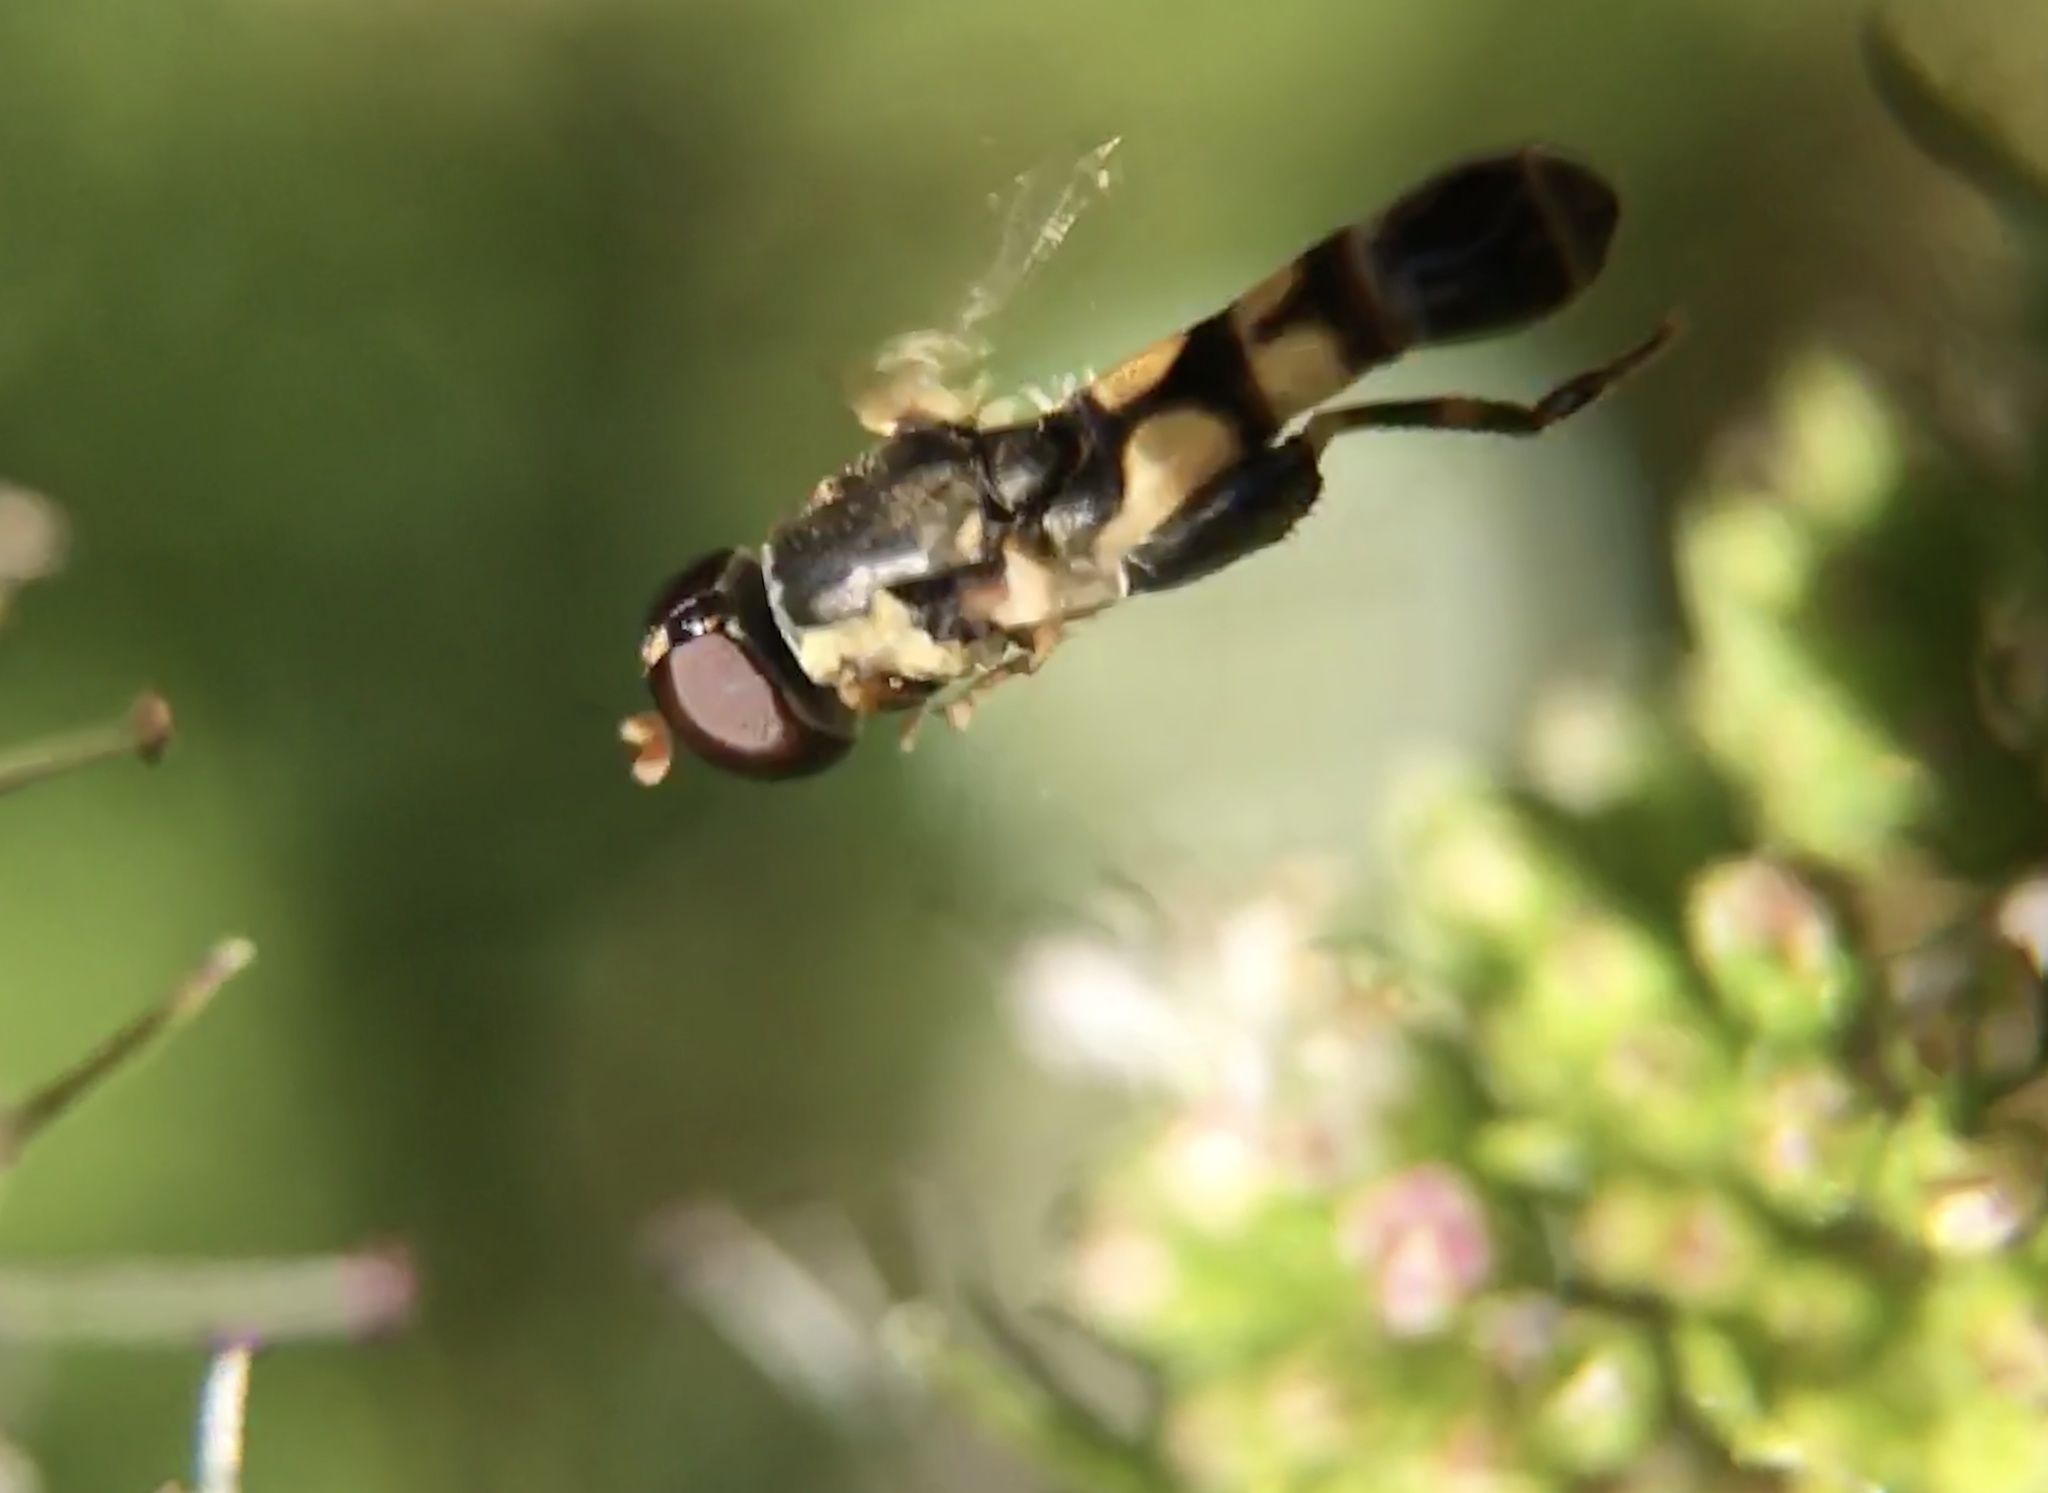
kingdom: Animalia
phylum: Arthropoda
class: Insecta
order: Diptera
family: Syrphidae
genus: Syritta
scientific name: Syritta pipiens
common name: Hover fly
